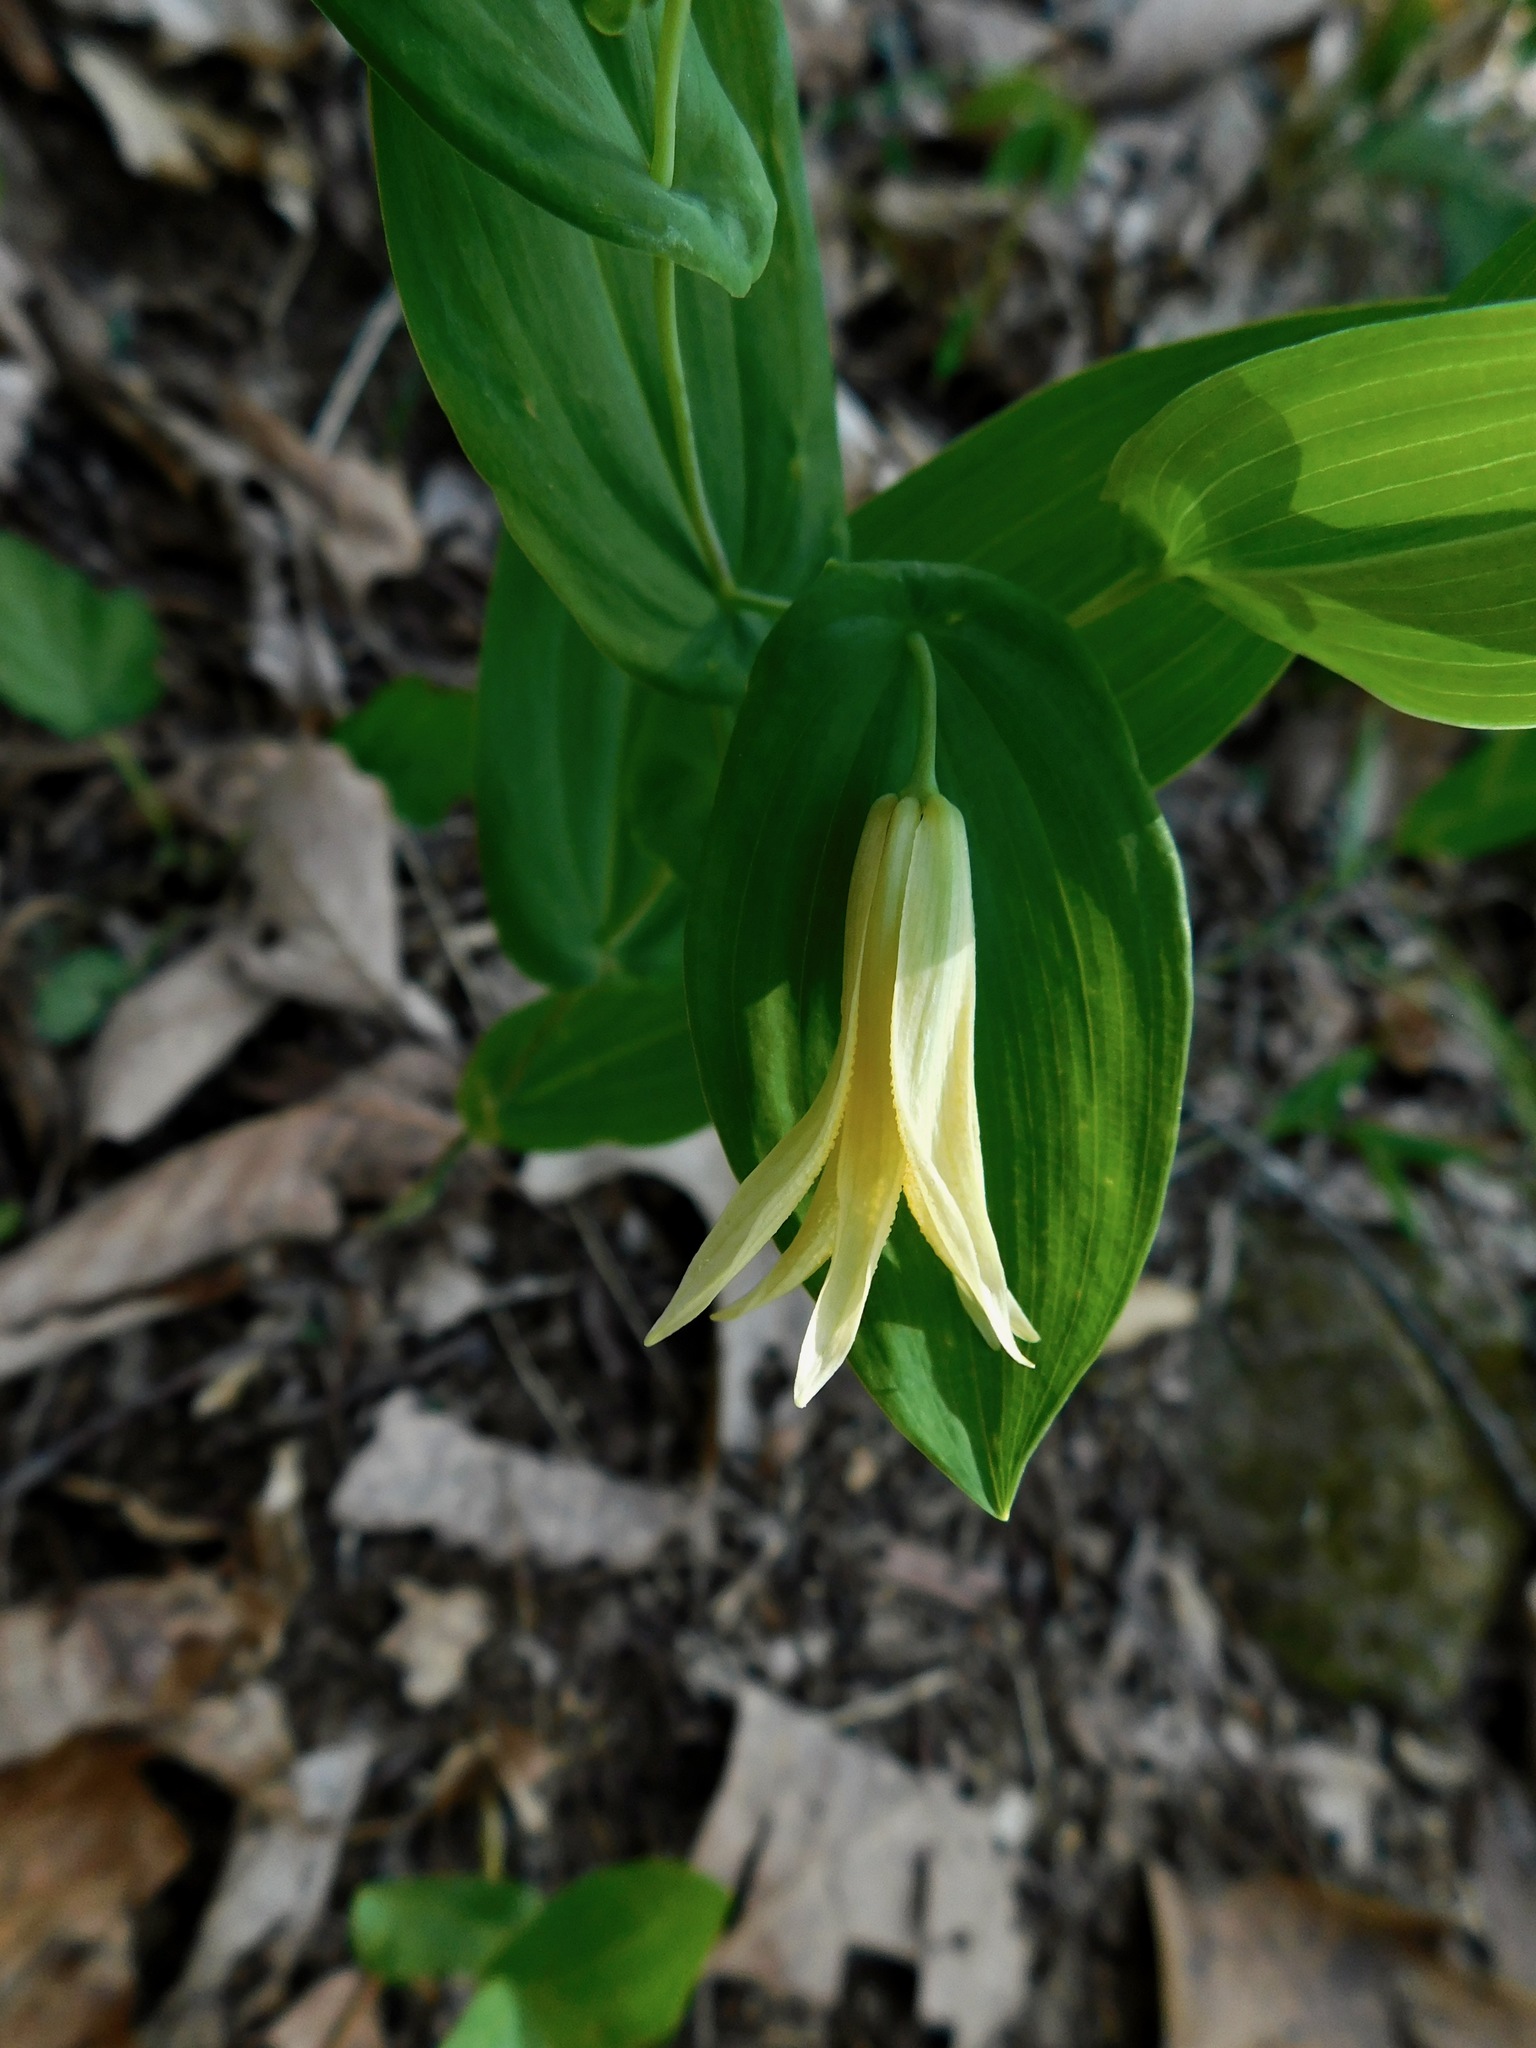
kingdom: Plantae
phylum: Tracheophyta
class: Liliopsida
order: Liliales
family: Colchicaceae
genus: Uvularia
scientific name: Uvularia perfoliata
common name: Perfoliate bellwort
